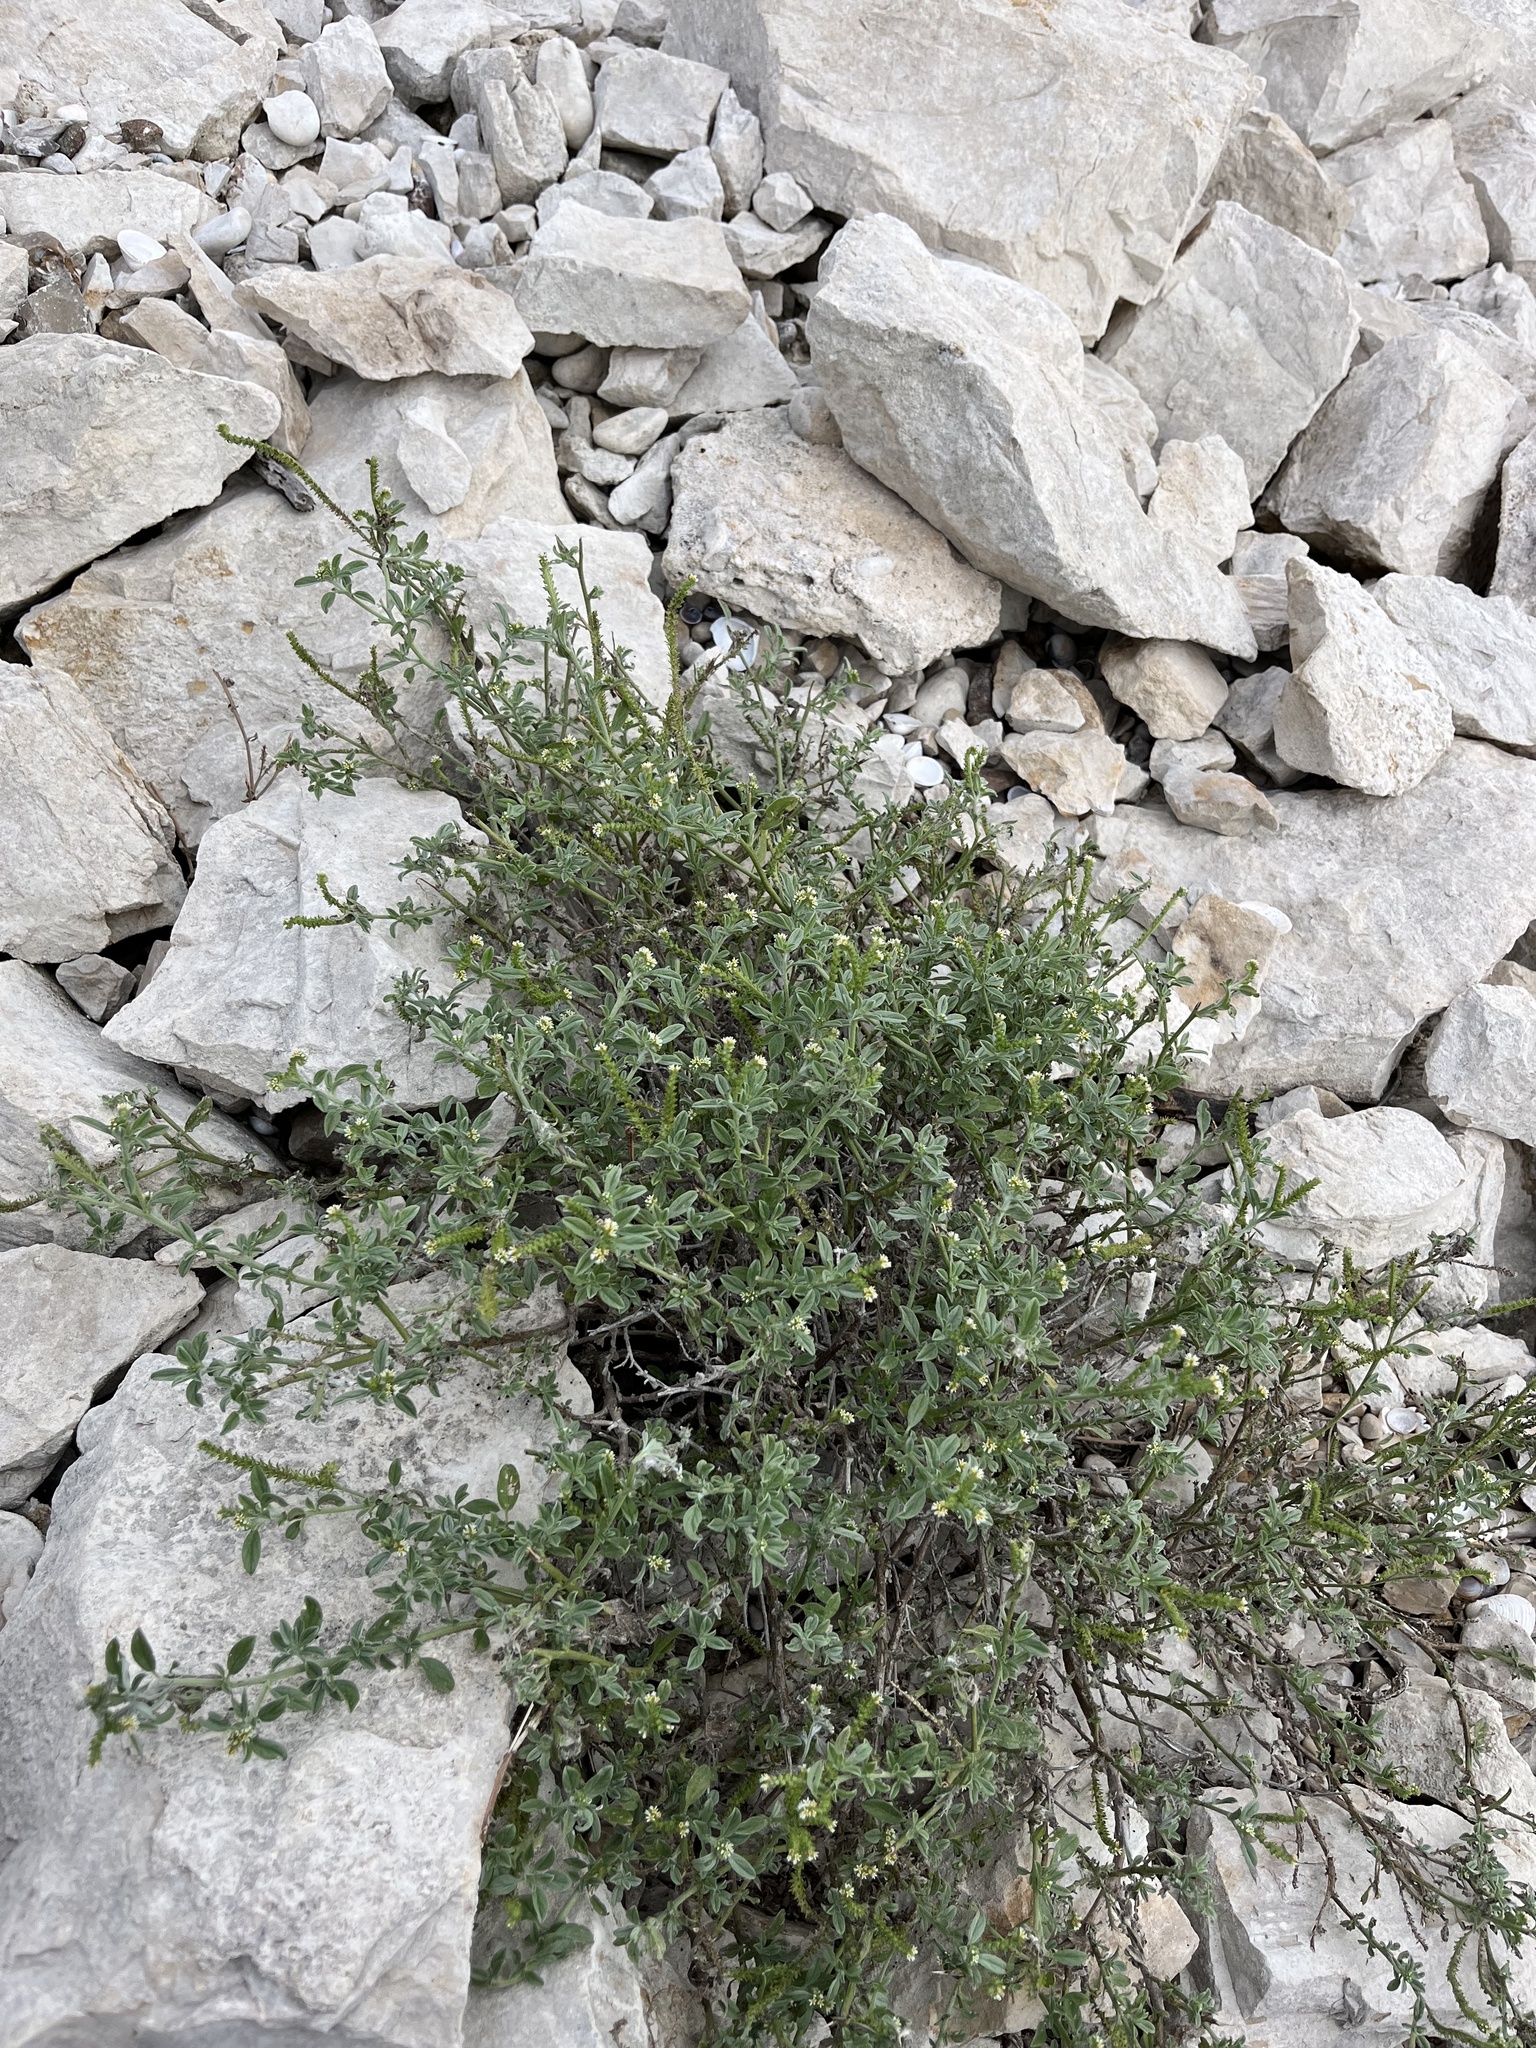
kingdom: Plantae
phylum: Tracheophyta
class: Magnoliopsida
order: Boraginales
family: Heliotropiaceae
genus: Euploca
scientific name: Euploca procumbens
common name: Fourspike heliotrope
